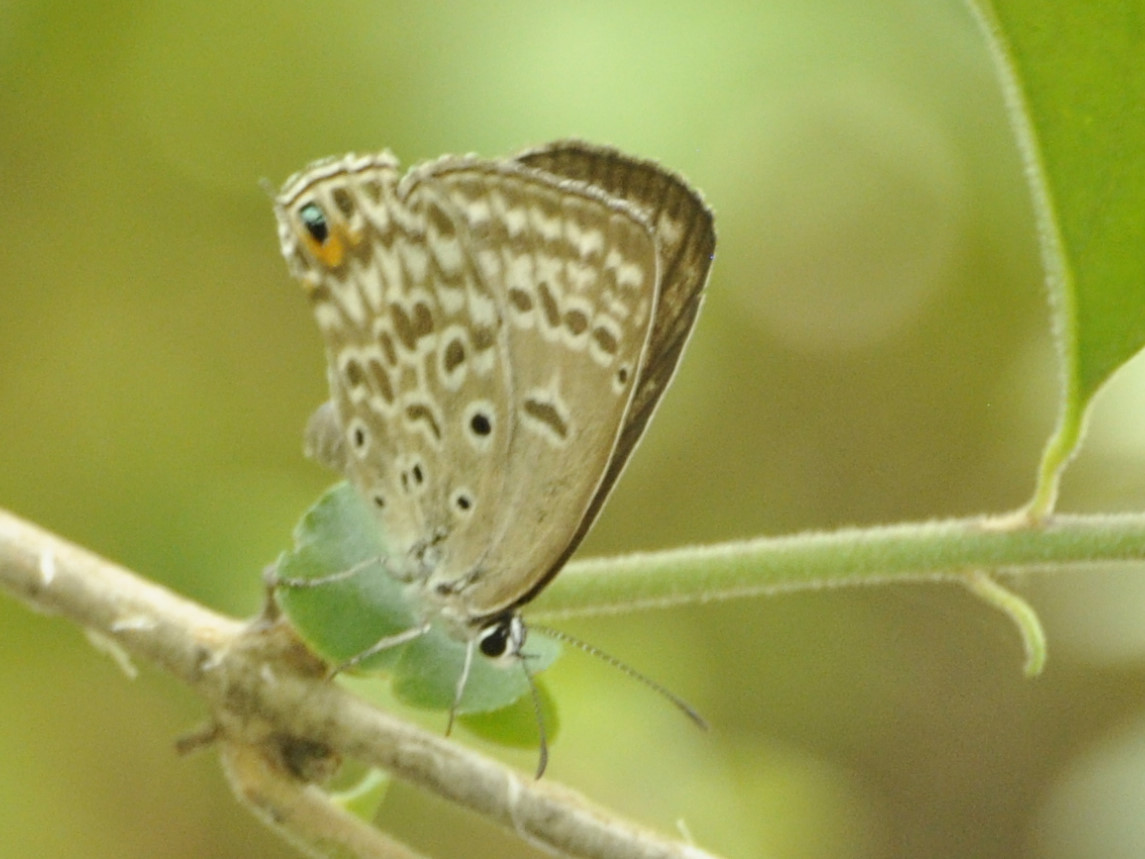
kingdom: Animalia
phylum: Arthropoda
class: Insecta
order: Lepidoptera
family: Lycaenidae
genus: Lepidochrysops
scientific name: Lepidochrysops plebeia
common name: Twin-spot giant cupid
